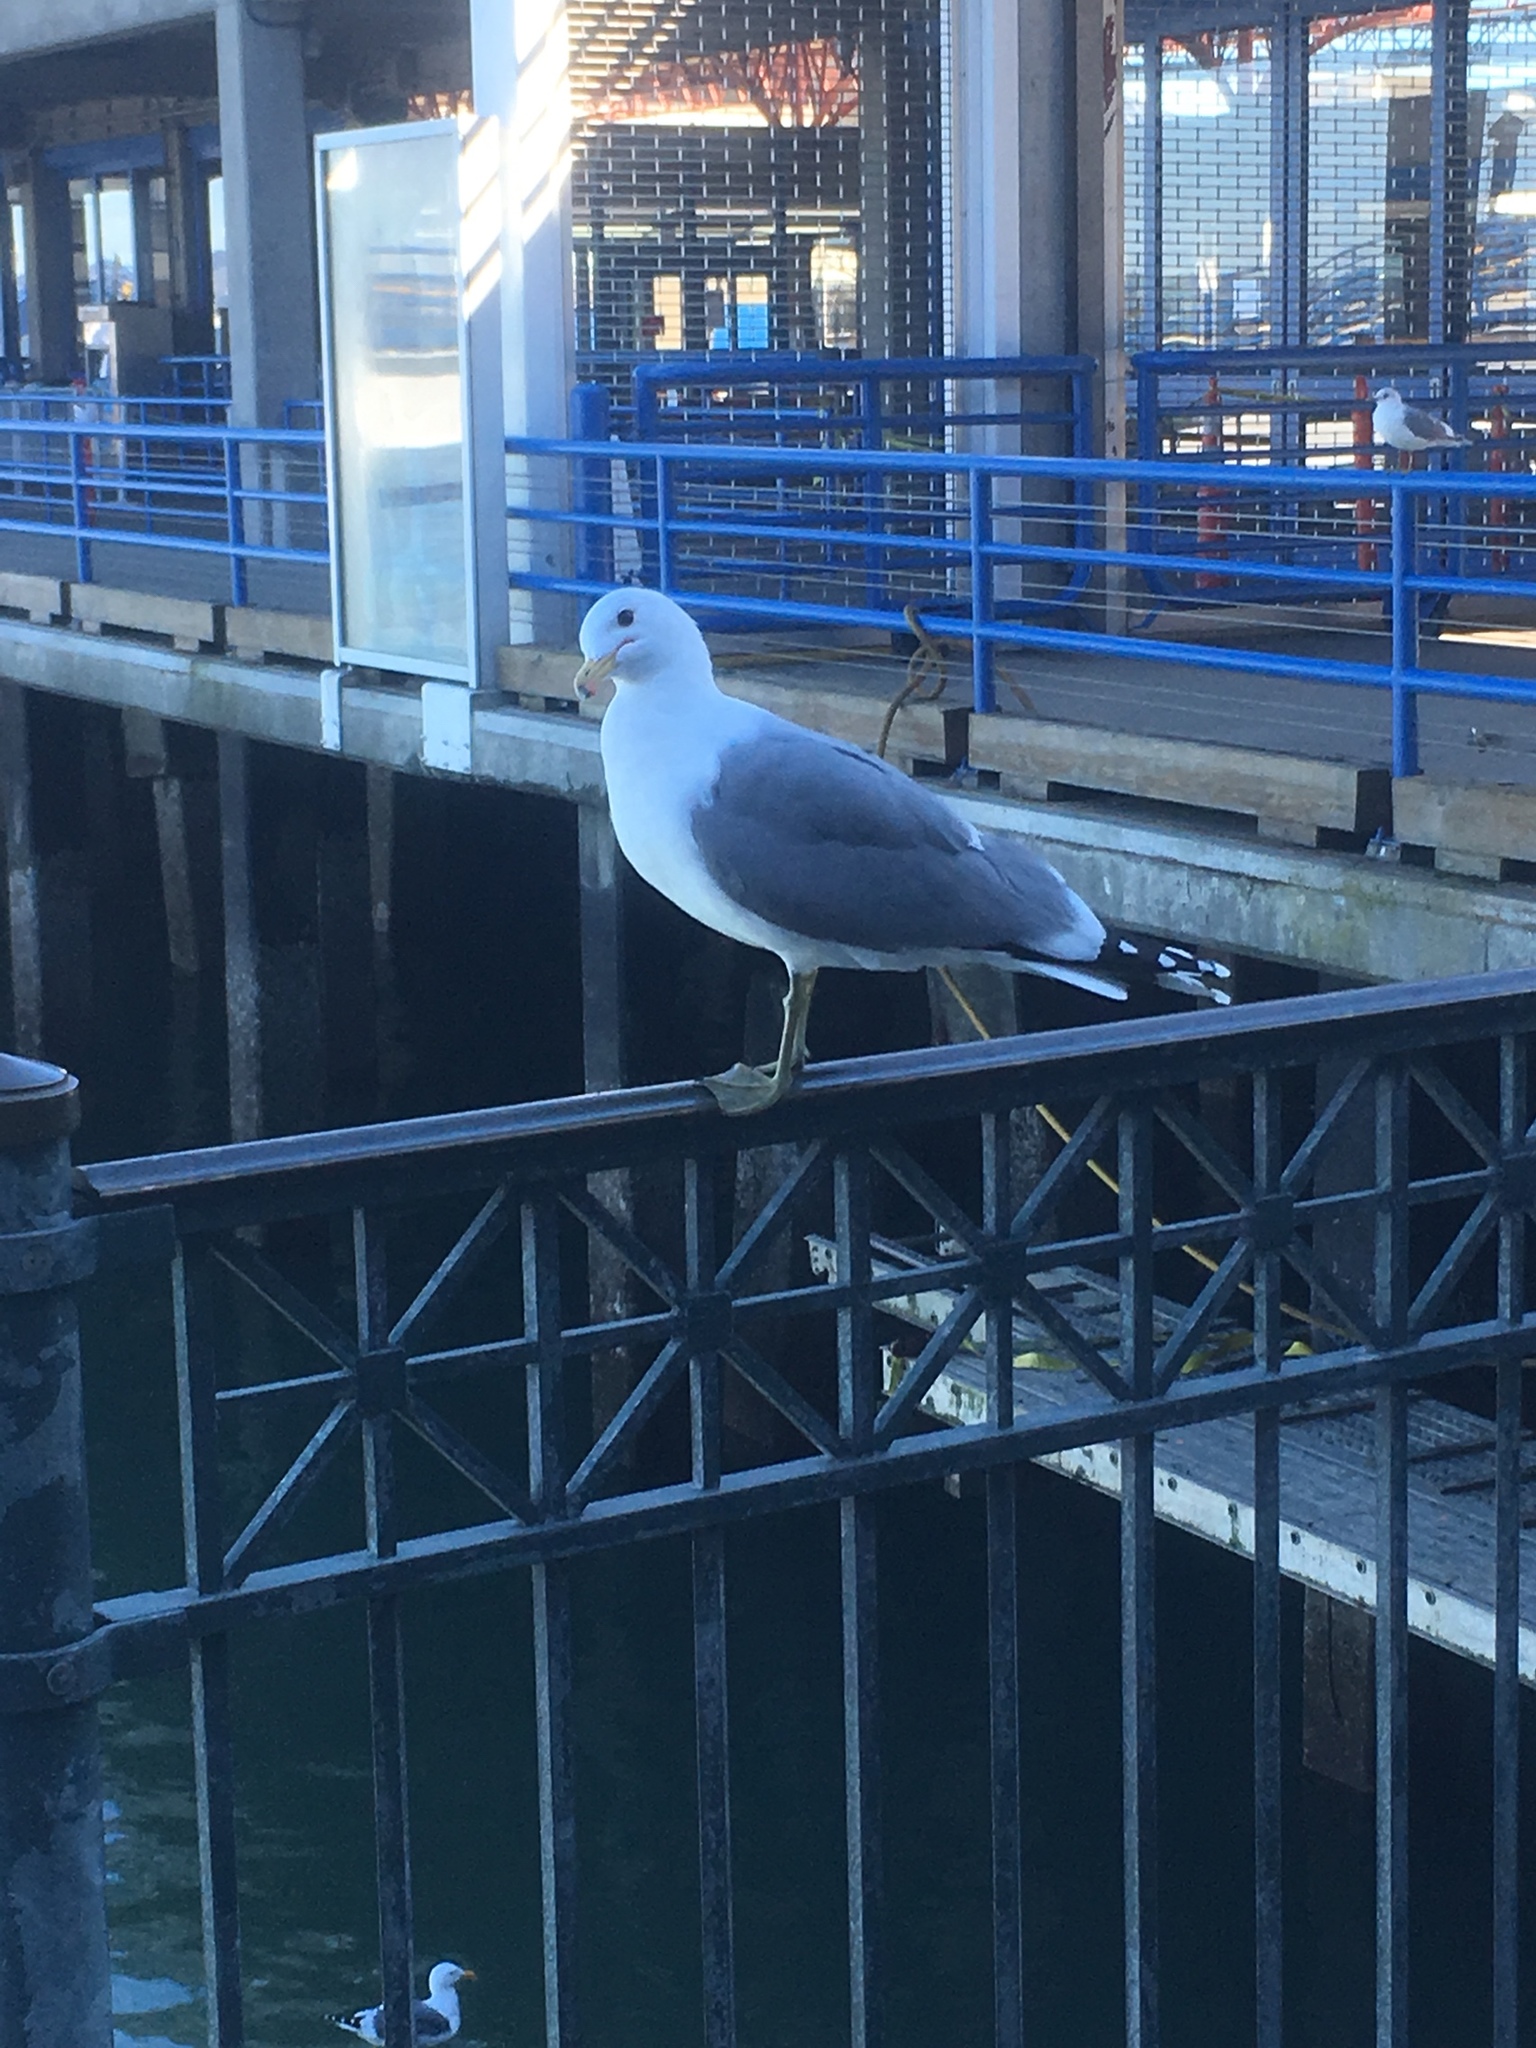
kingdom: Animalia
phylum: Chordata
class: Aves
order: Charadriiformes
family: Laridae
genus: Larus
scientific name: Larus californicus
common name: California gull
